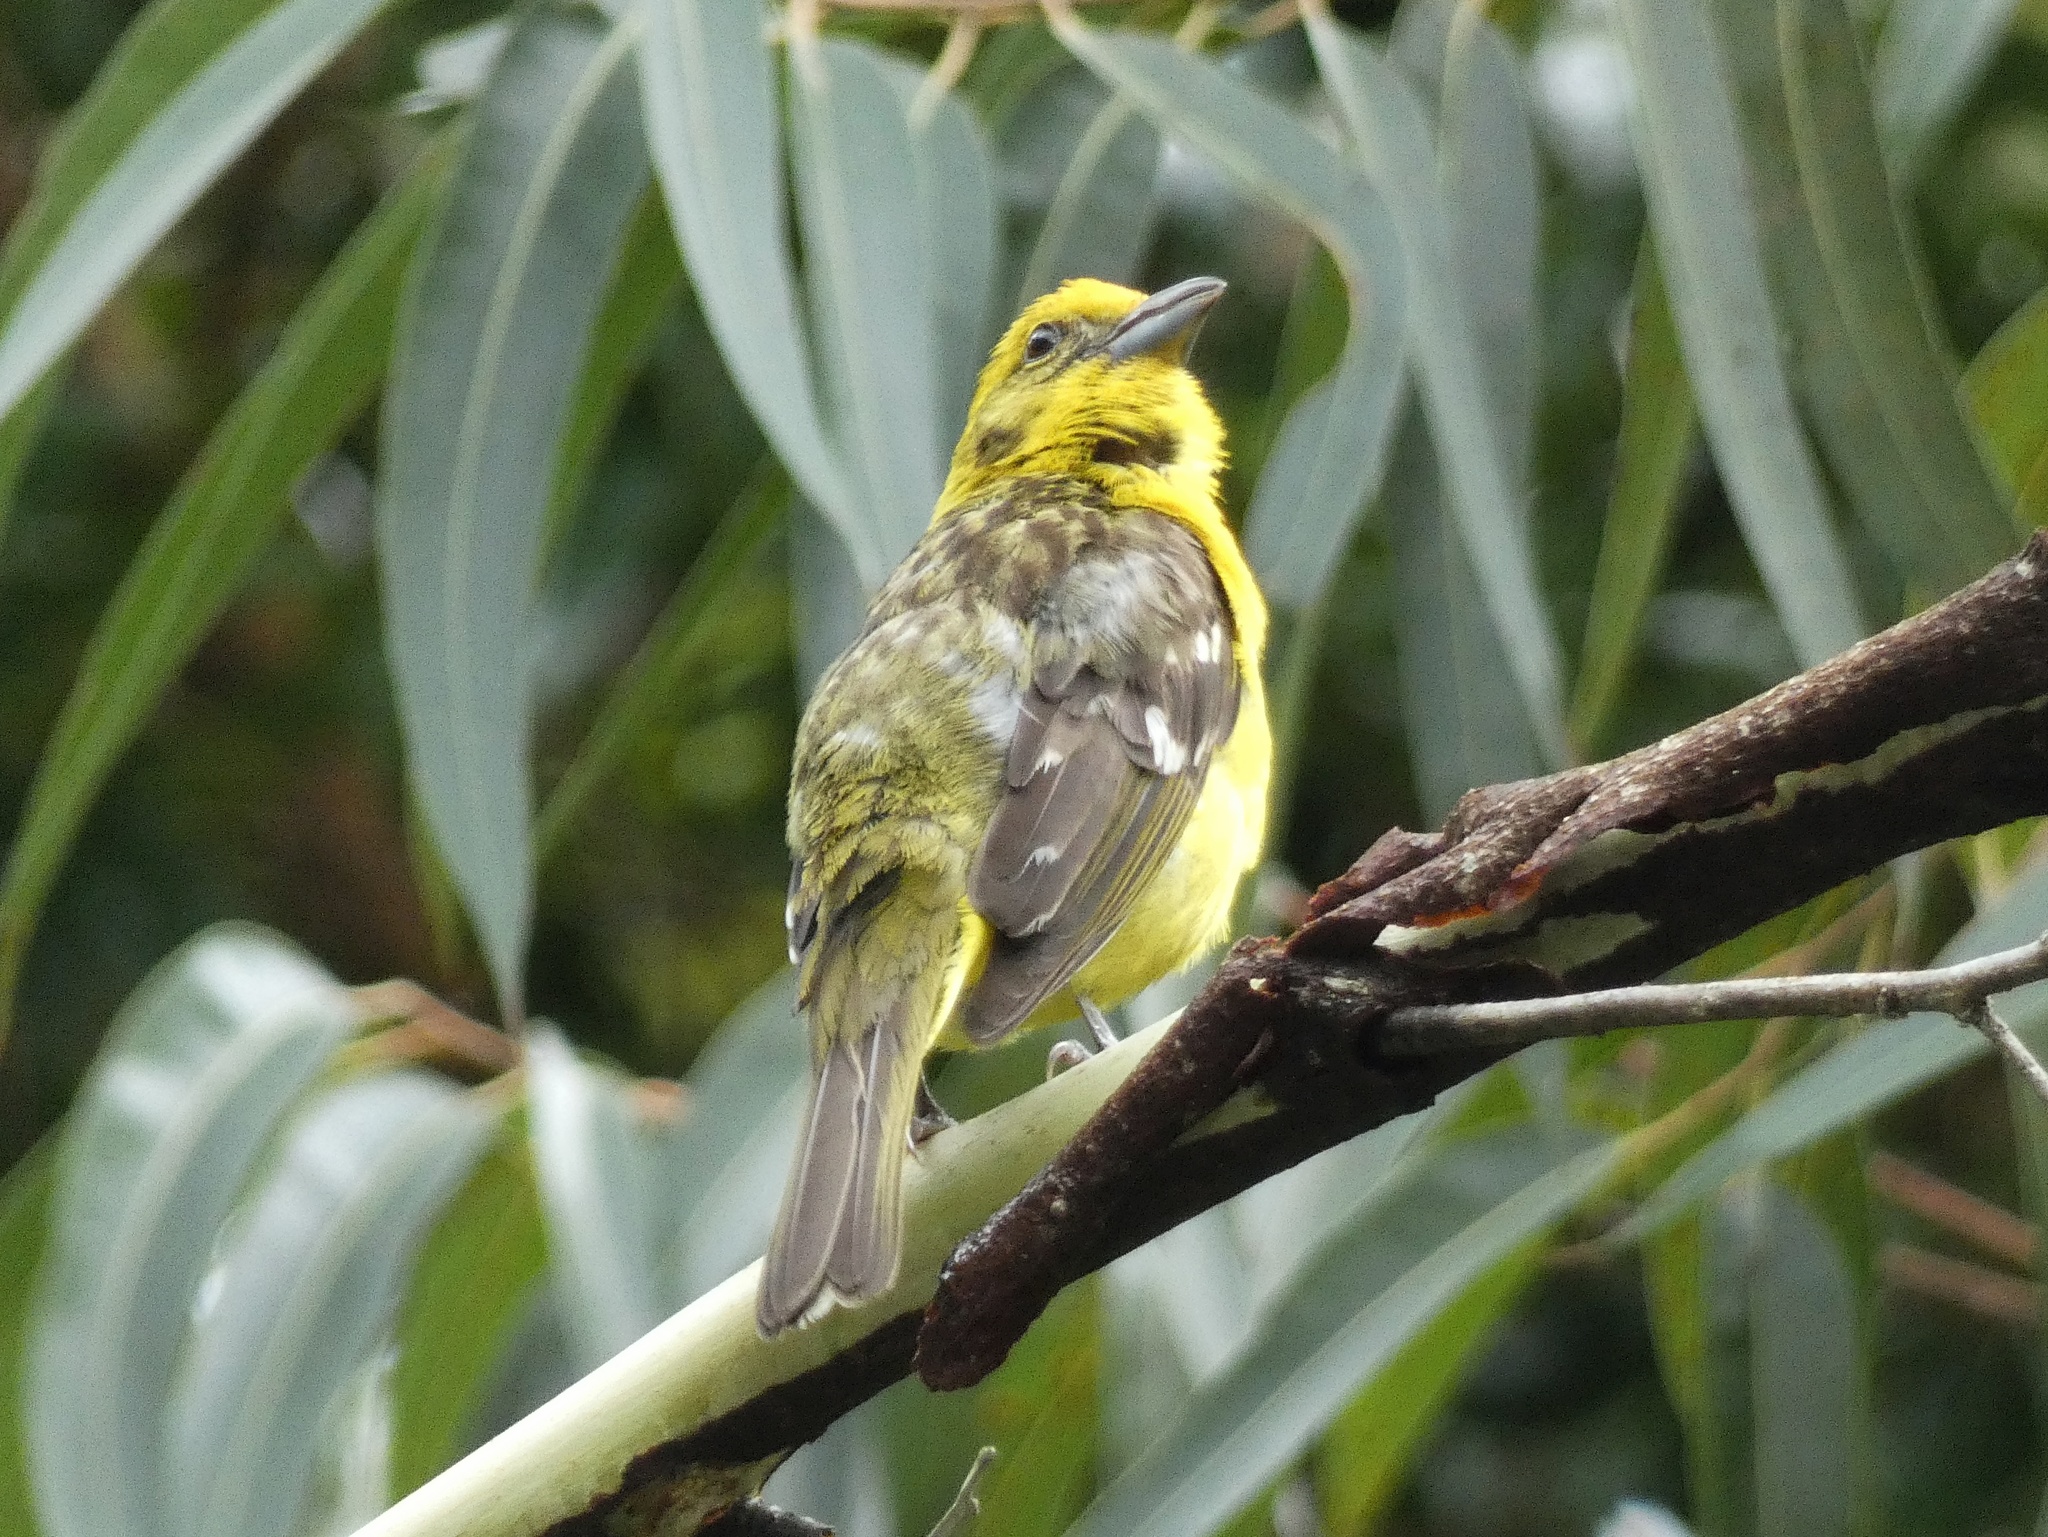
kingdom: Animalia
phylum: Chordata
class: Aves
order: Passeriformes
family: Cardinalidae
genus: Piranga
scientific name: Piranga bidentata
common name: Flame-colored tanager
